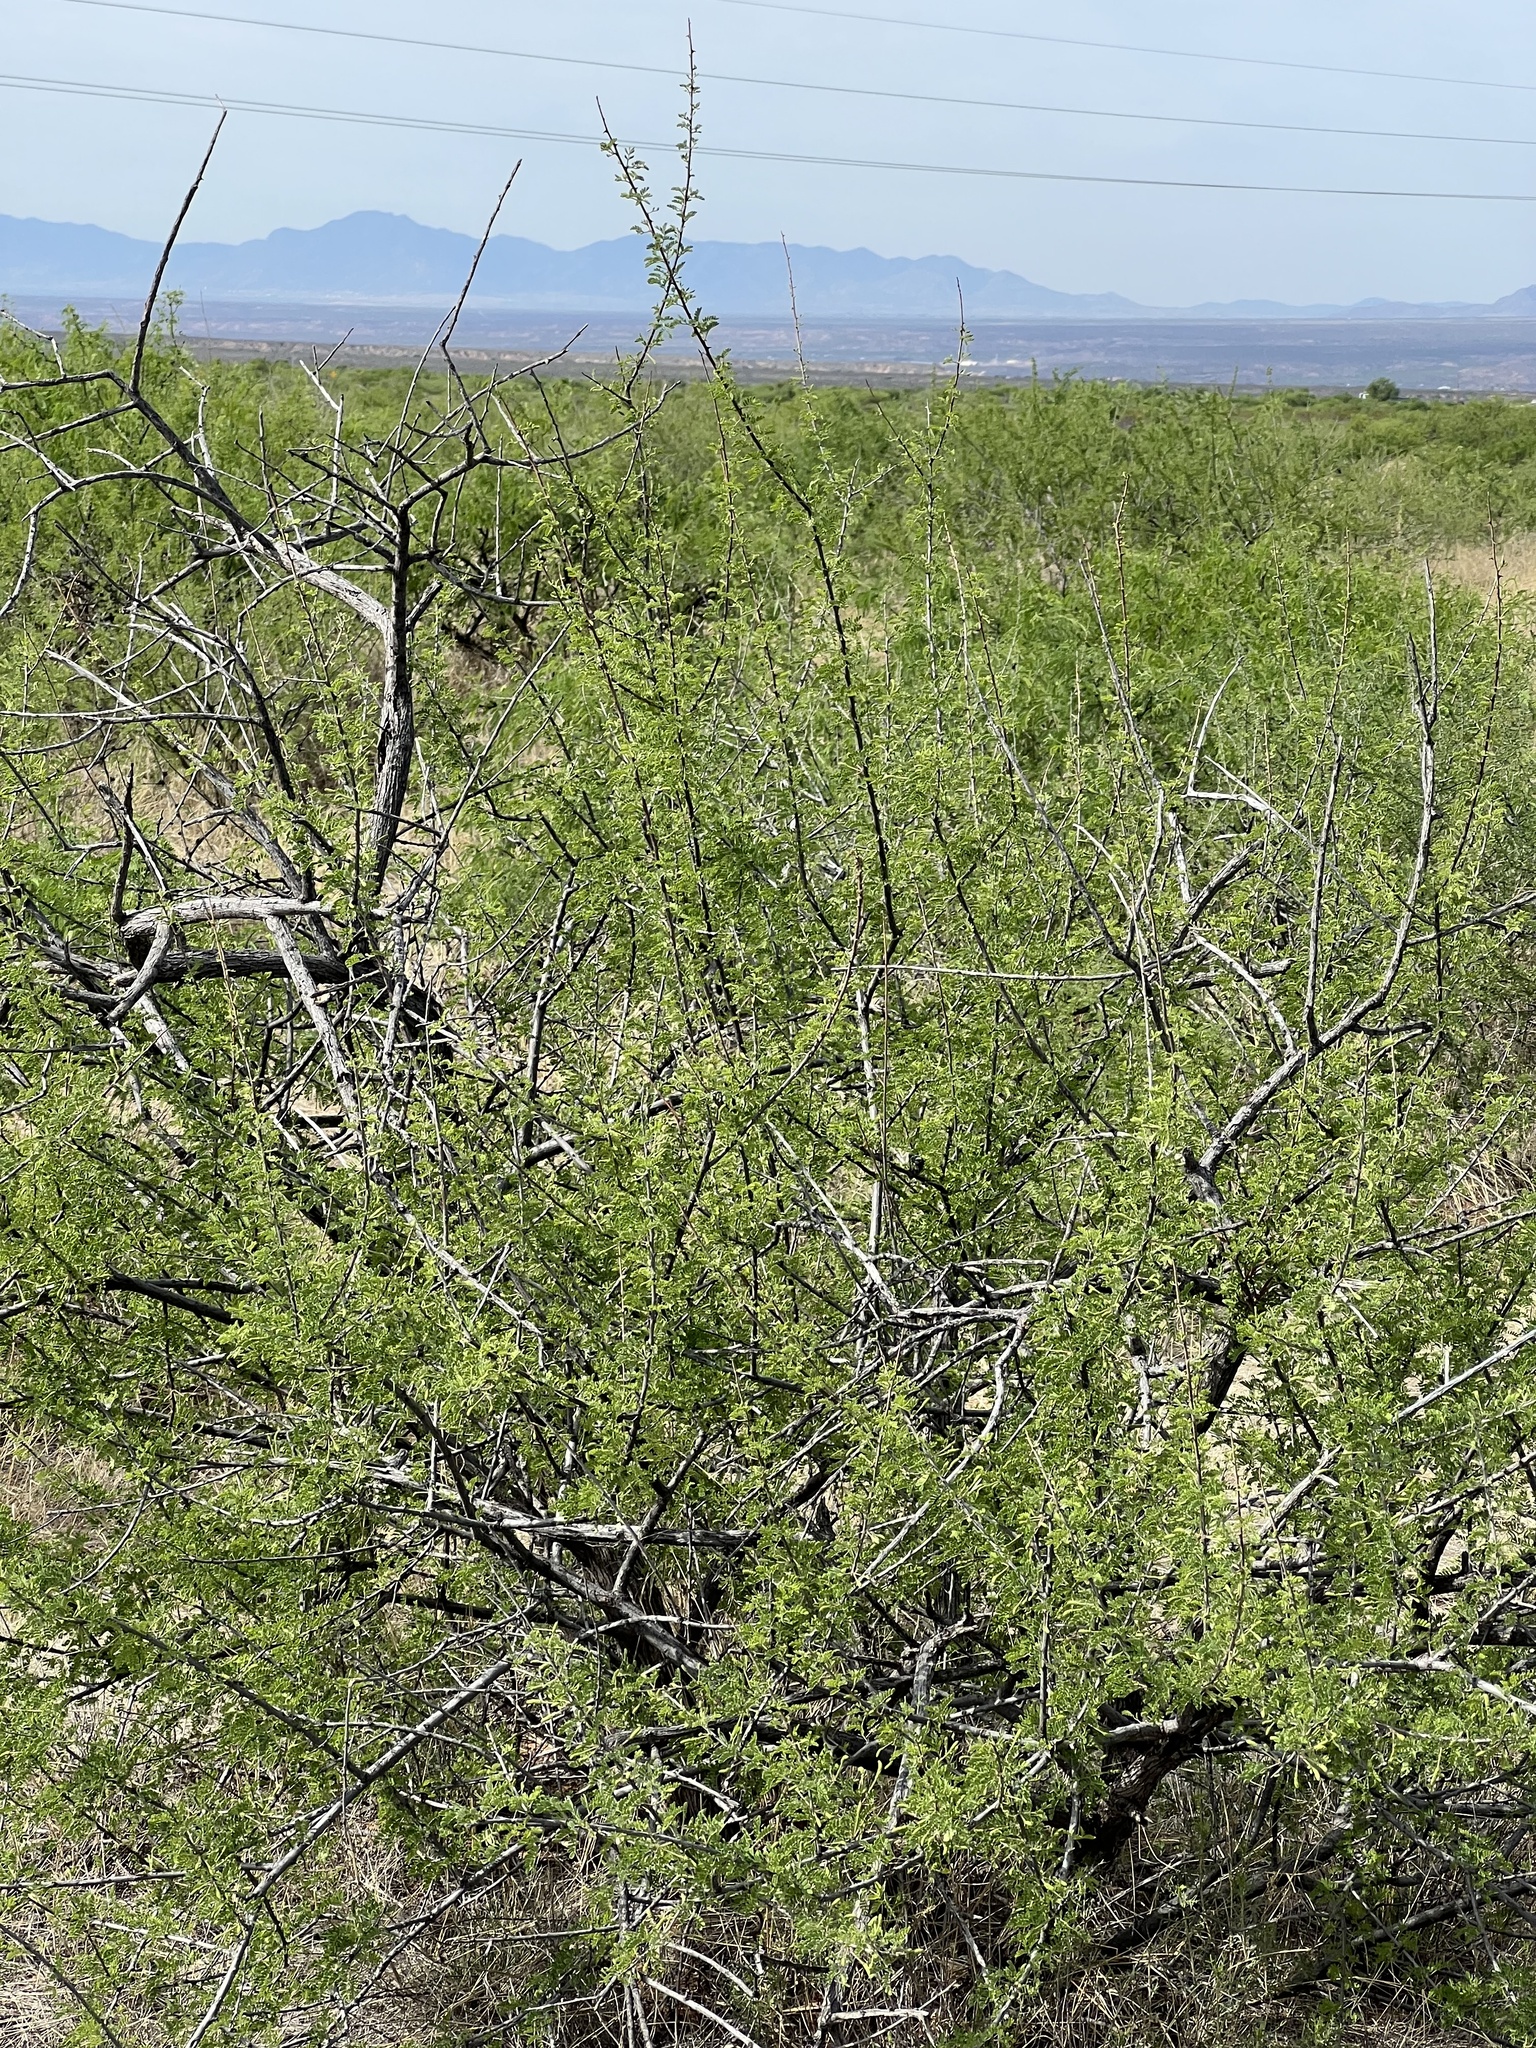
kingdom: Plantae
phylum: Tracheophyta
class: Magnoliopsida
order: Fabales
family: Fabaceae
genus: Senegalia
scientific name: Senegalia greggii
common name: Texas-mimosa
